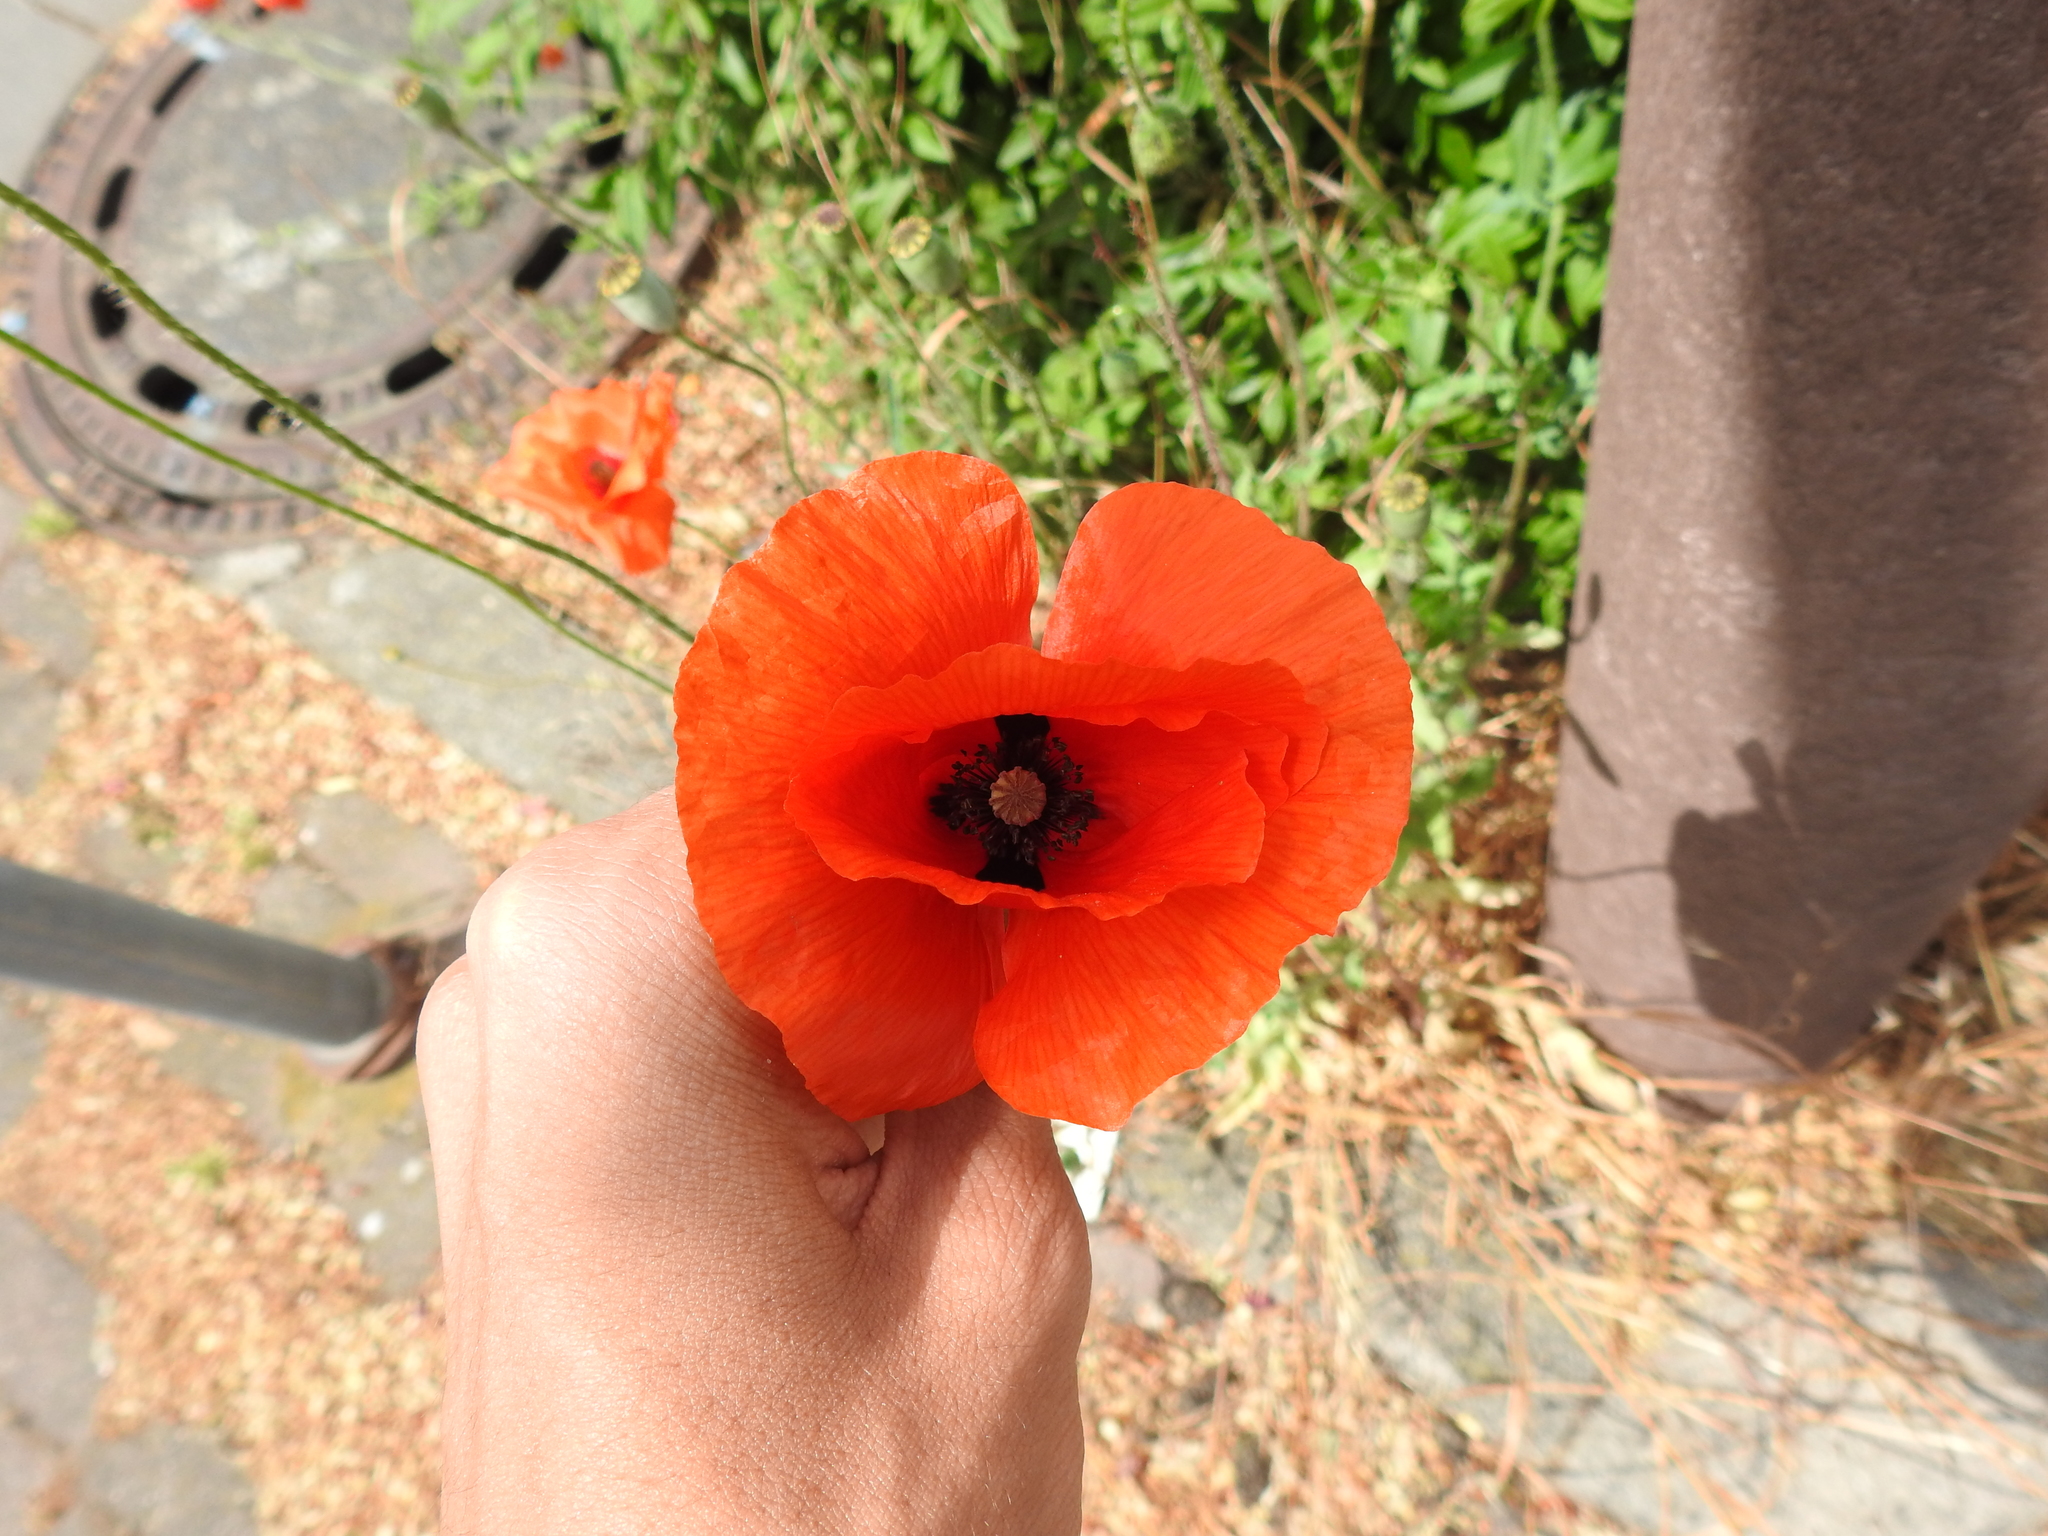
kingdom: Plantae
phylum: Tracheophyta
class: Magnoliopsida
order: Ranunculales
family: Papaveraceae
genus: Papaver
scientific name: Papaver rhoeas
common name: Corn poppy
